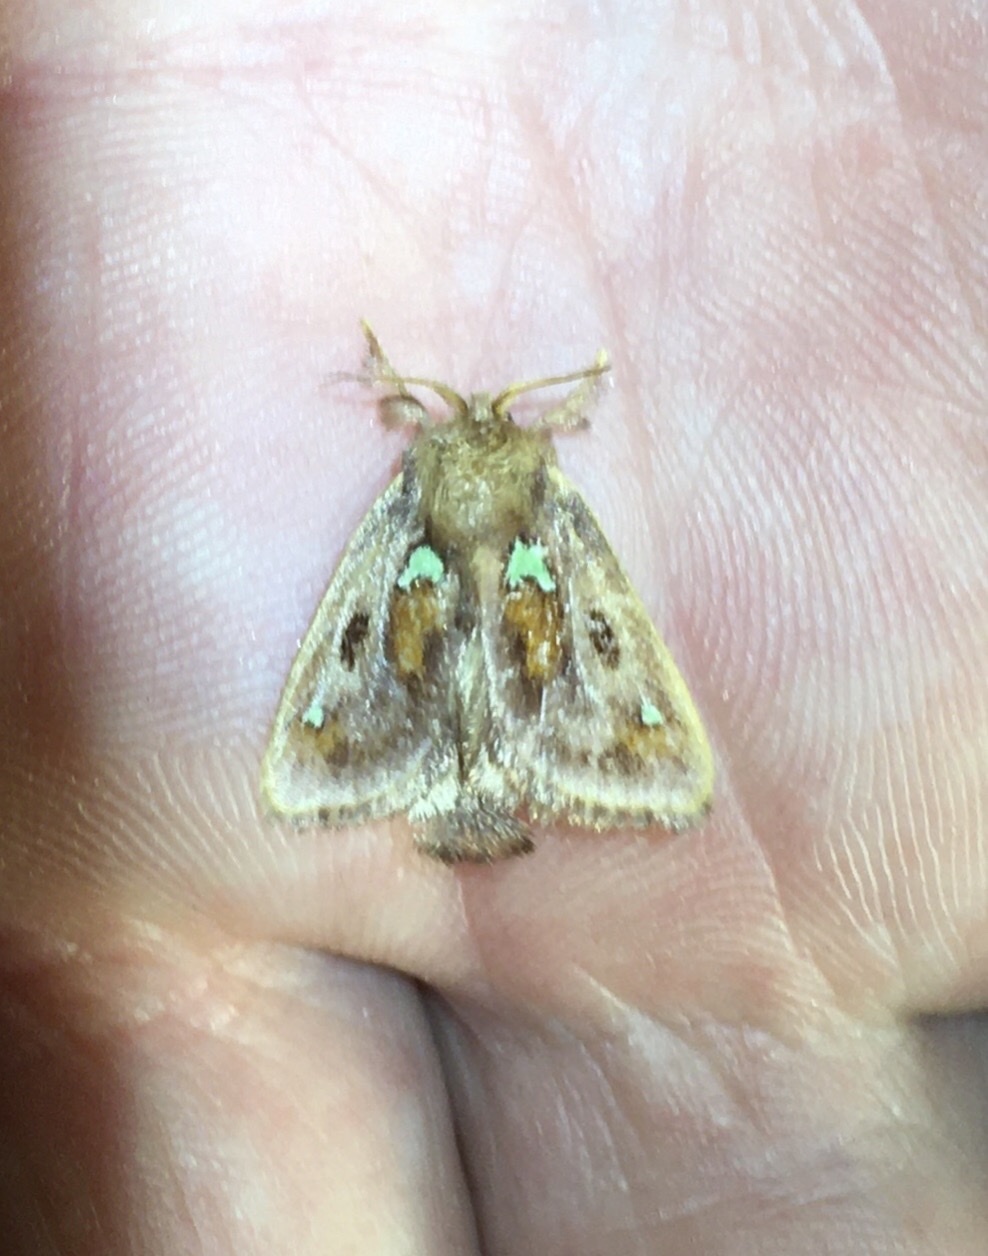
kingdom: Animalia
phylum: Arthropoda
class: Insecta
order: Lepidoptera
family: Limacodidae
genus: Euclea
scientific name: Euclea delphinii
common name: Spiny oak-slug moth
